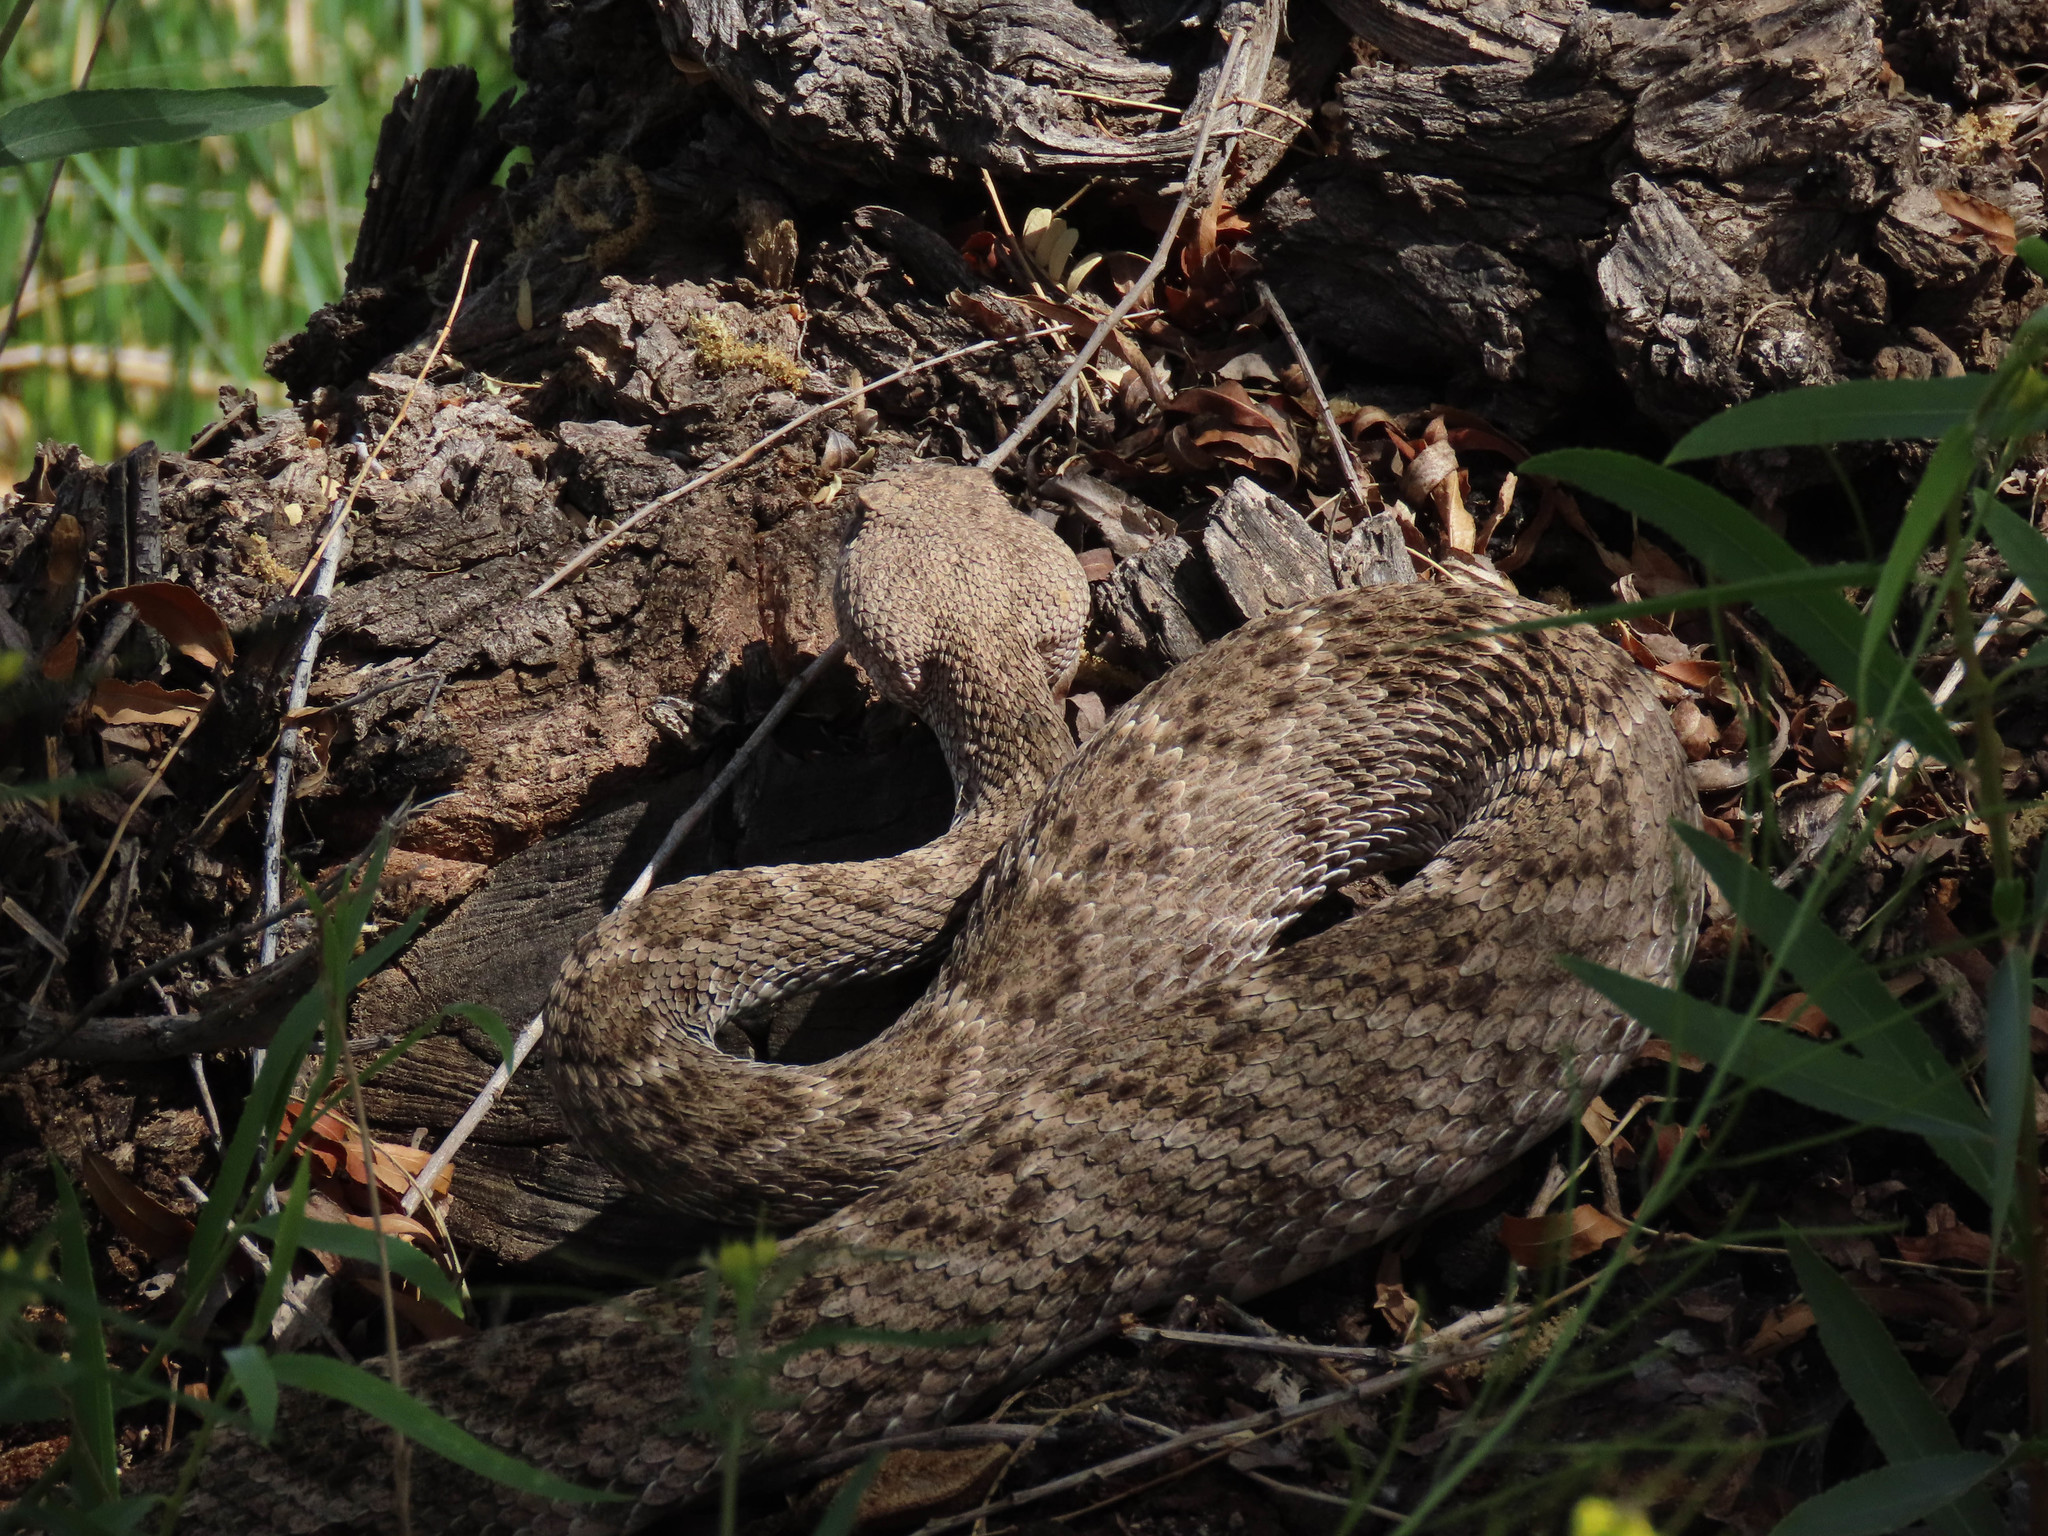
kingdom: Animalia
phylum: Chordata
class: Squamata
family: Viperidae
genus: Crotalus
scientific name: Crotalus atrox
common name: Western diamond-backed rattlesnake
